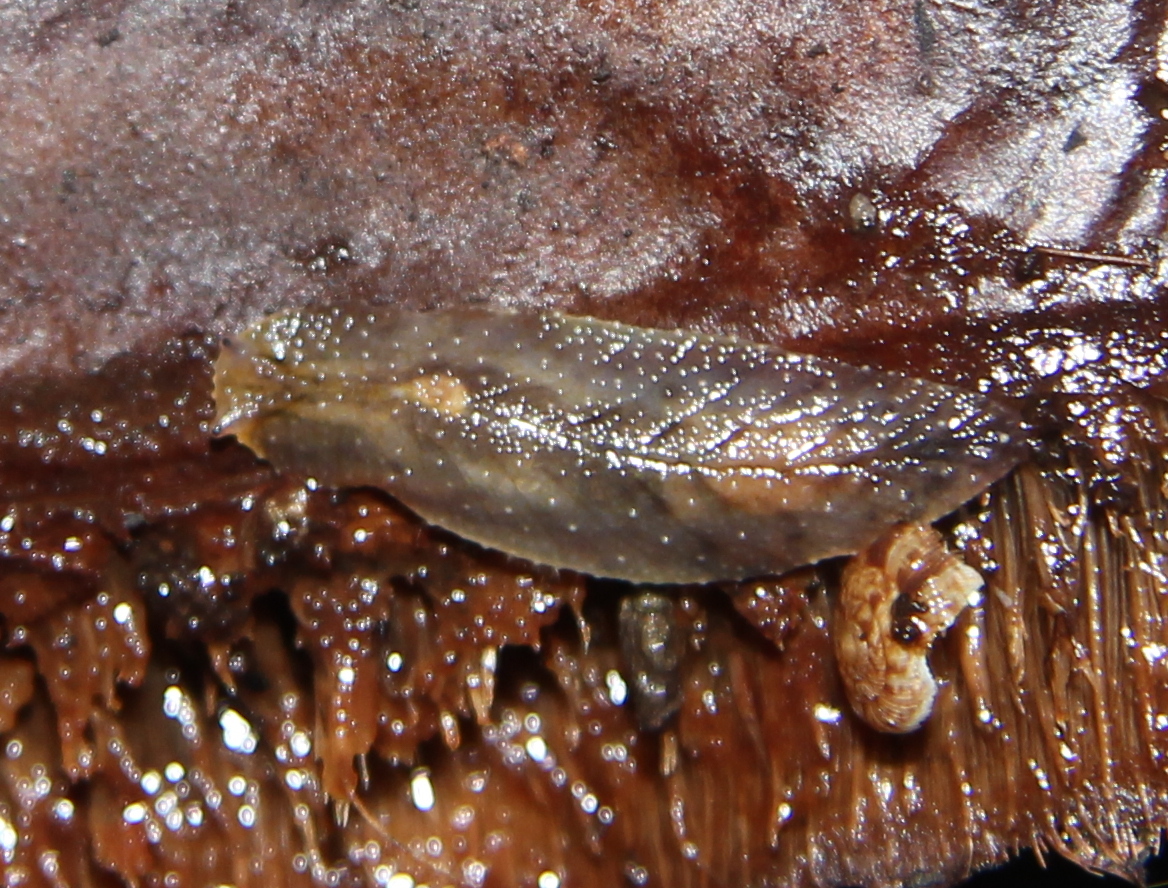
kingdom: Animalia
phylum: Mollusca
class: Gastropoda
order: Stylommatophora
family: Athoracophoridae
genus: Athoracophorus
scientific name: Athoracophorus
